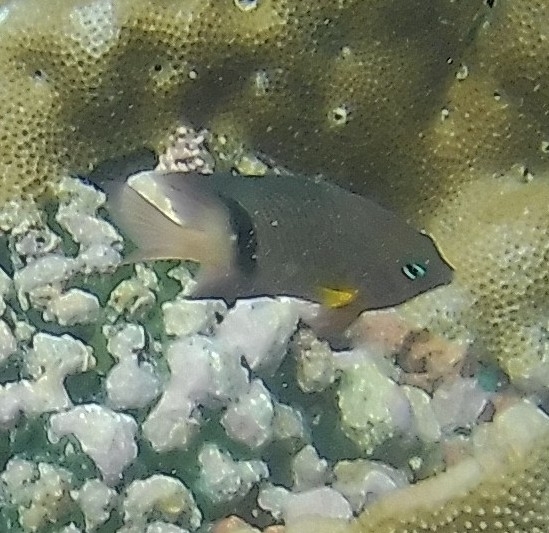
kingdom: Animalia
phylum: Chordata
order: Perciformes
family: Pomacentridae
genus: Plectroglyphidodon
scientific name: Plectroglyphidodon dickii
